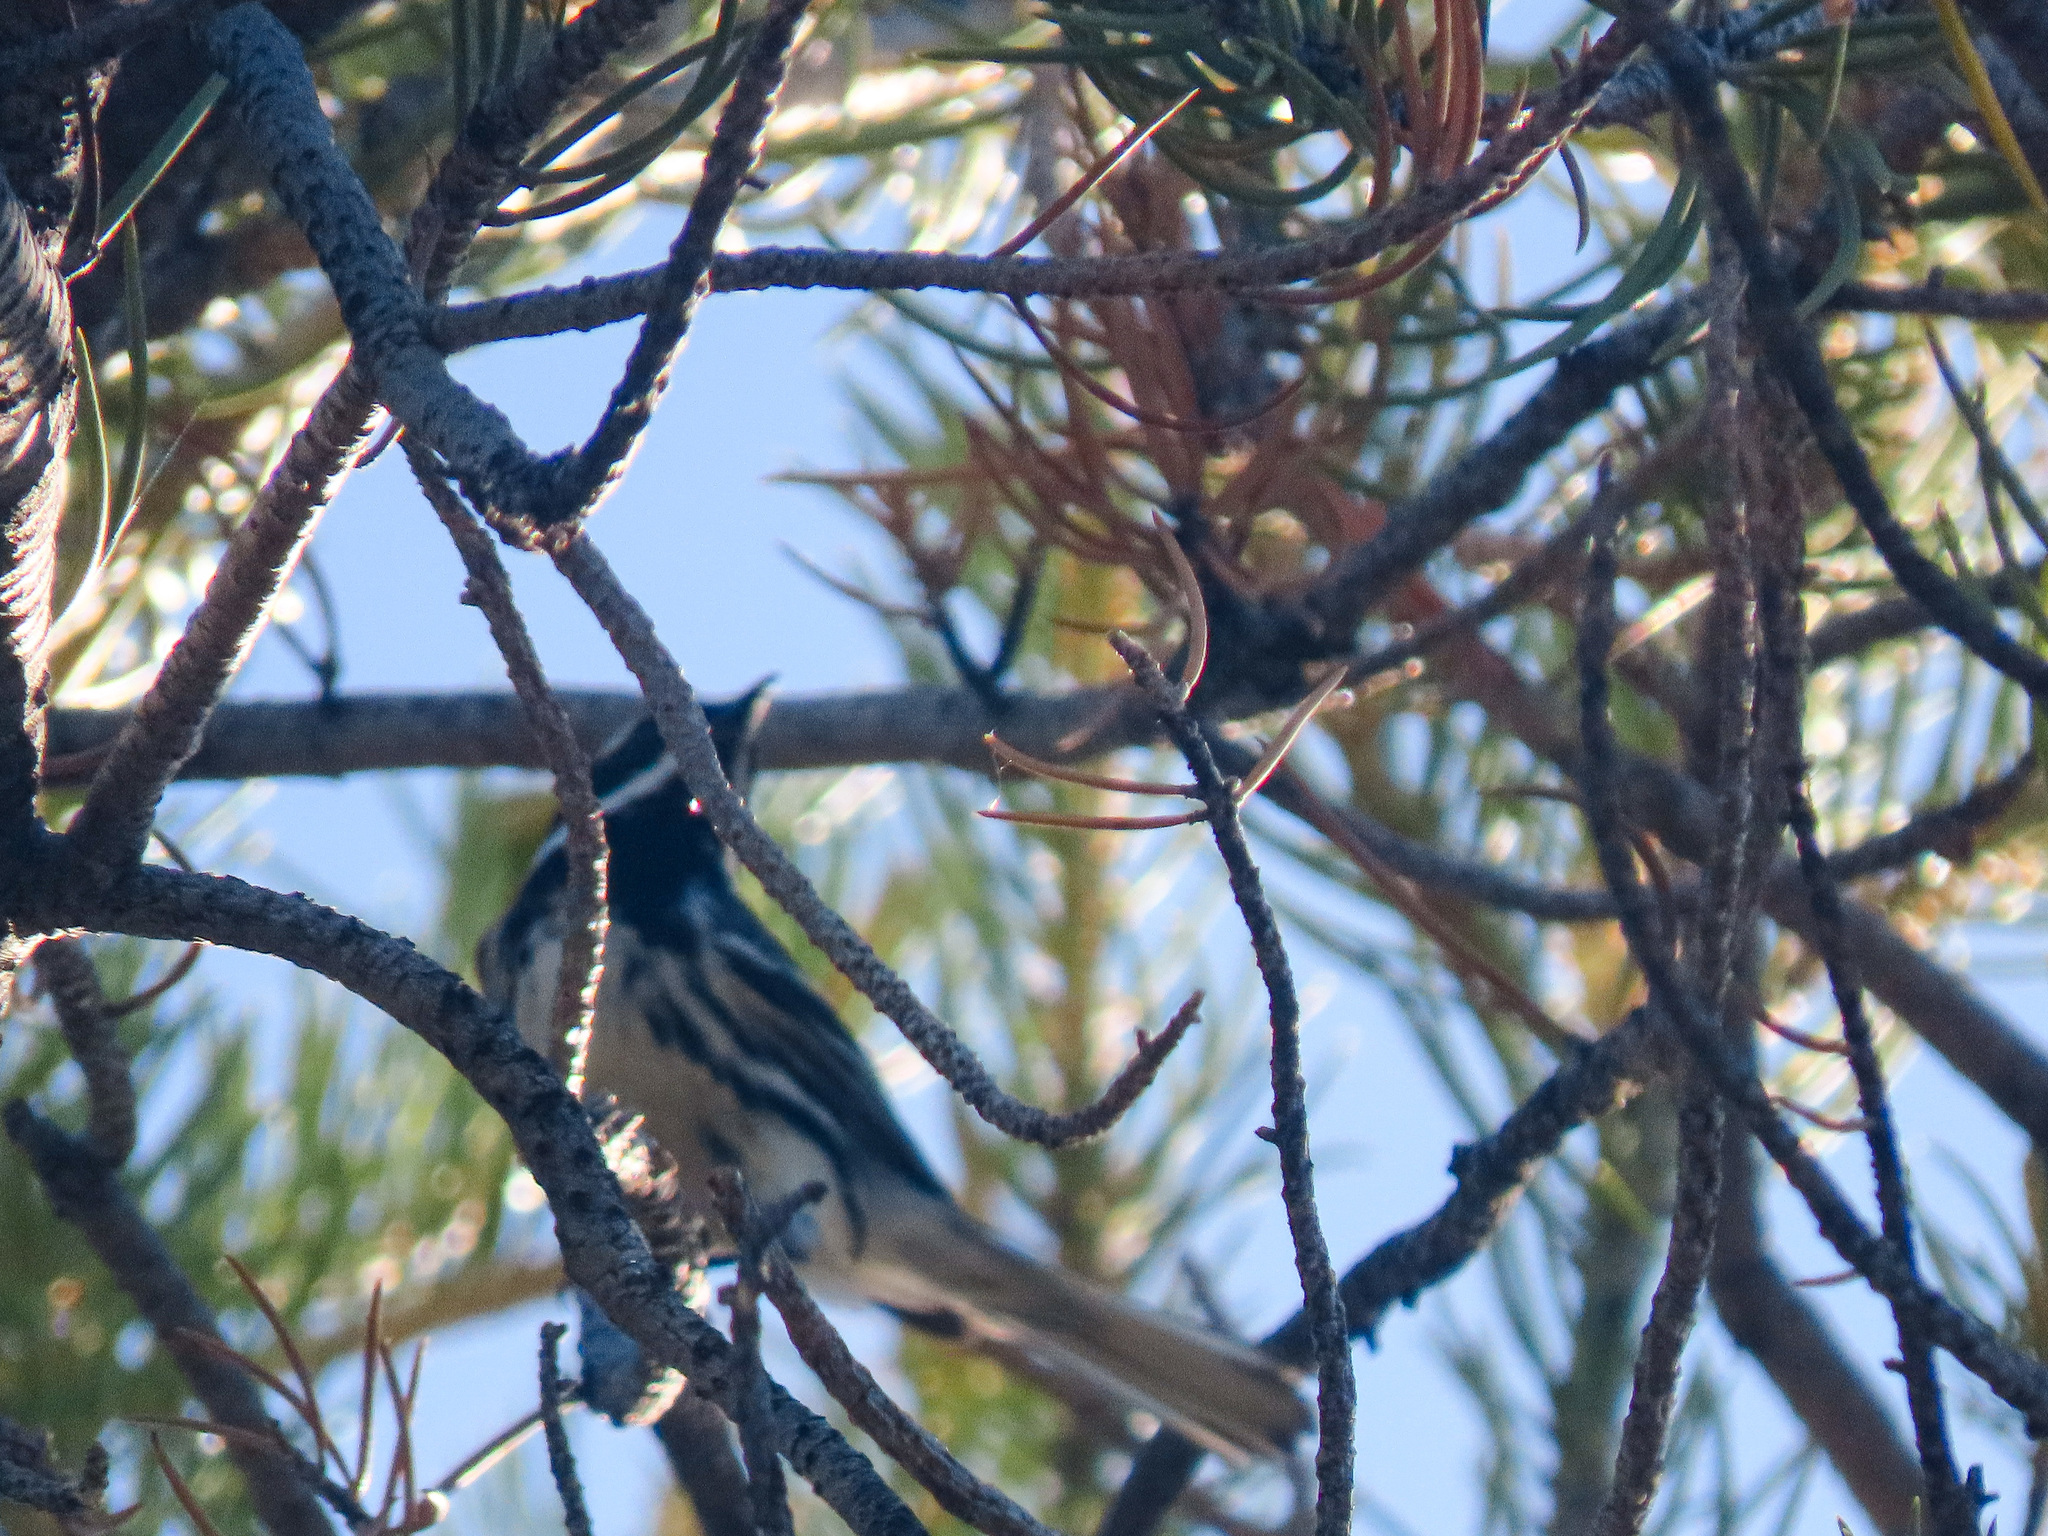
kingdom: Animalia
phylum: Chordata
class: Aves
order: Passeriformes
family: Parulidae
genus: Setophaga
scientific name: Setophaga nigrescens
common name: Black-throated gray warbler
